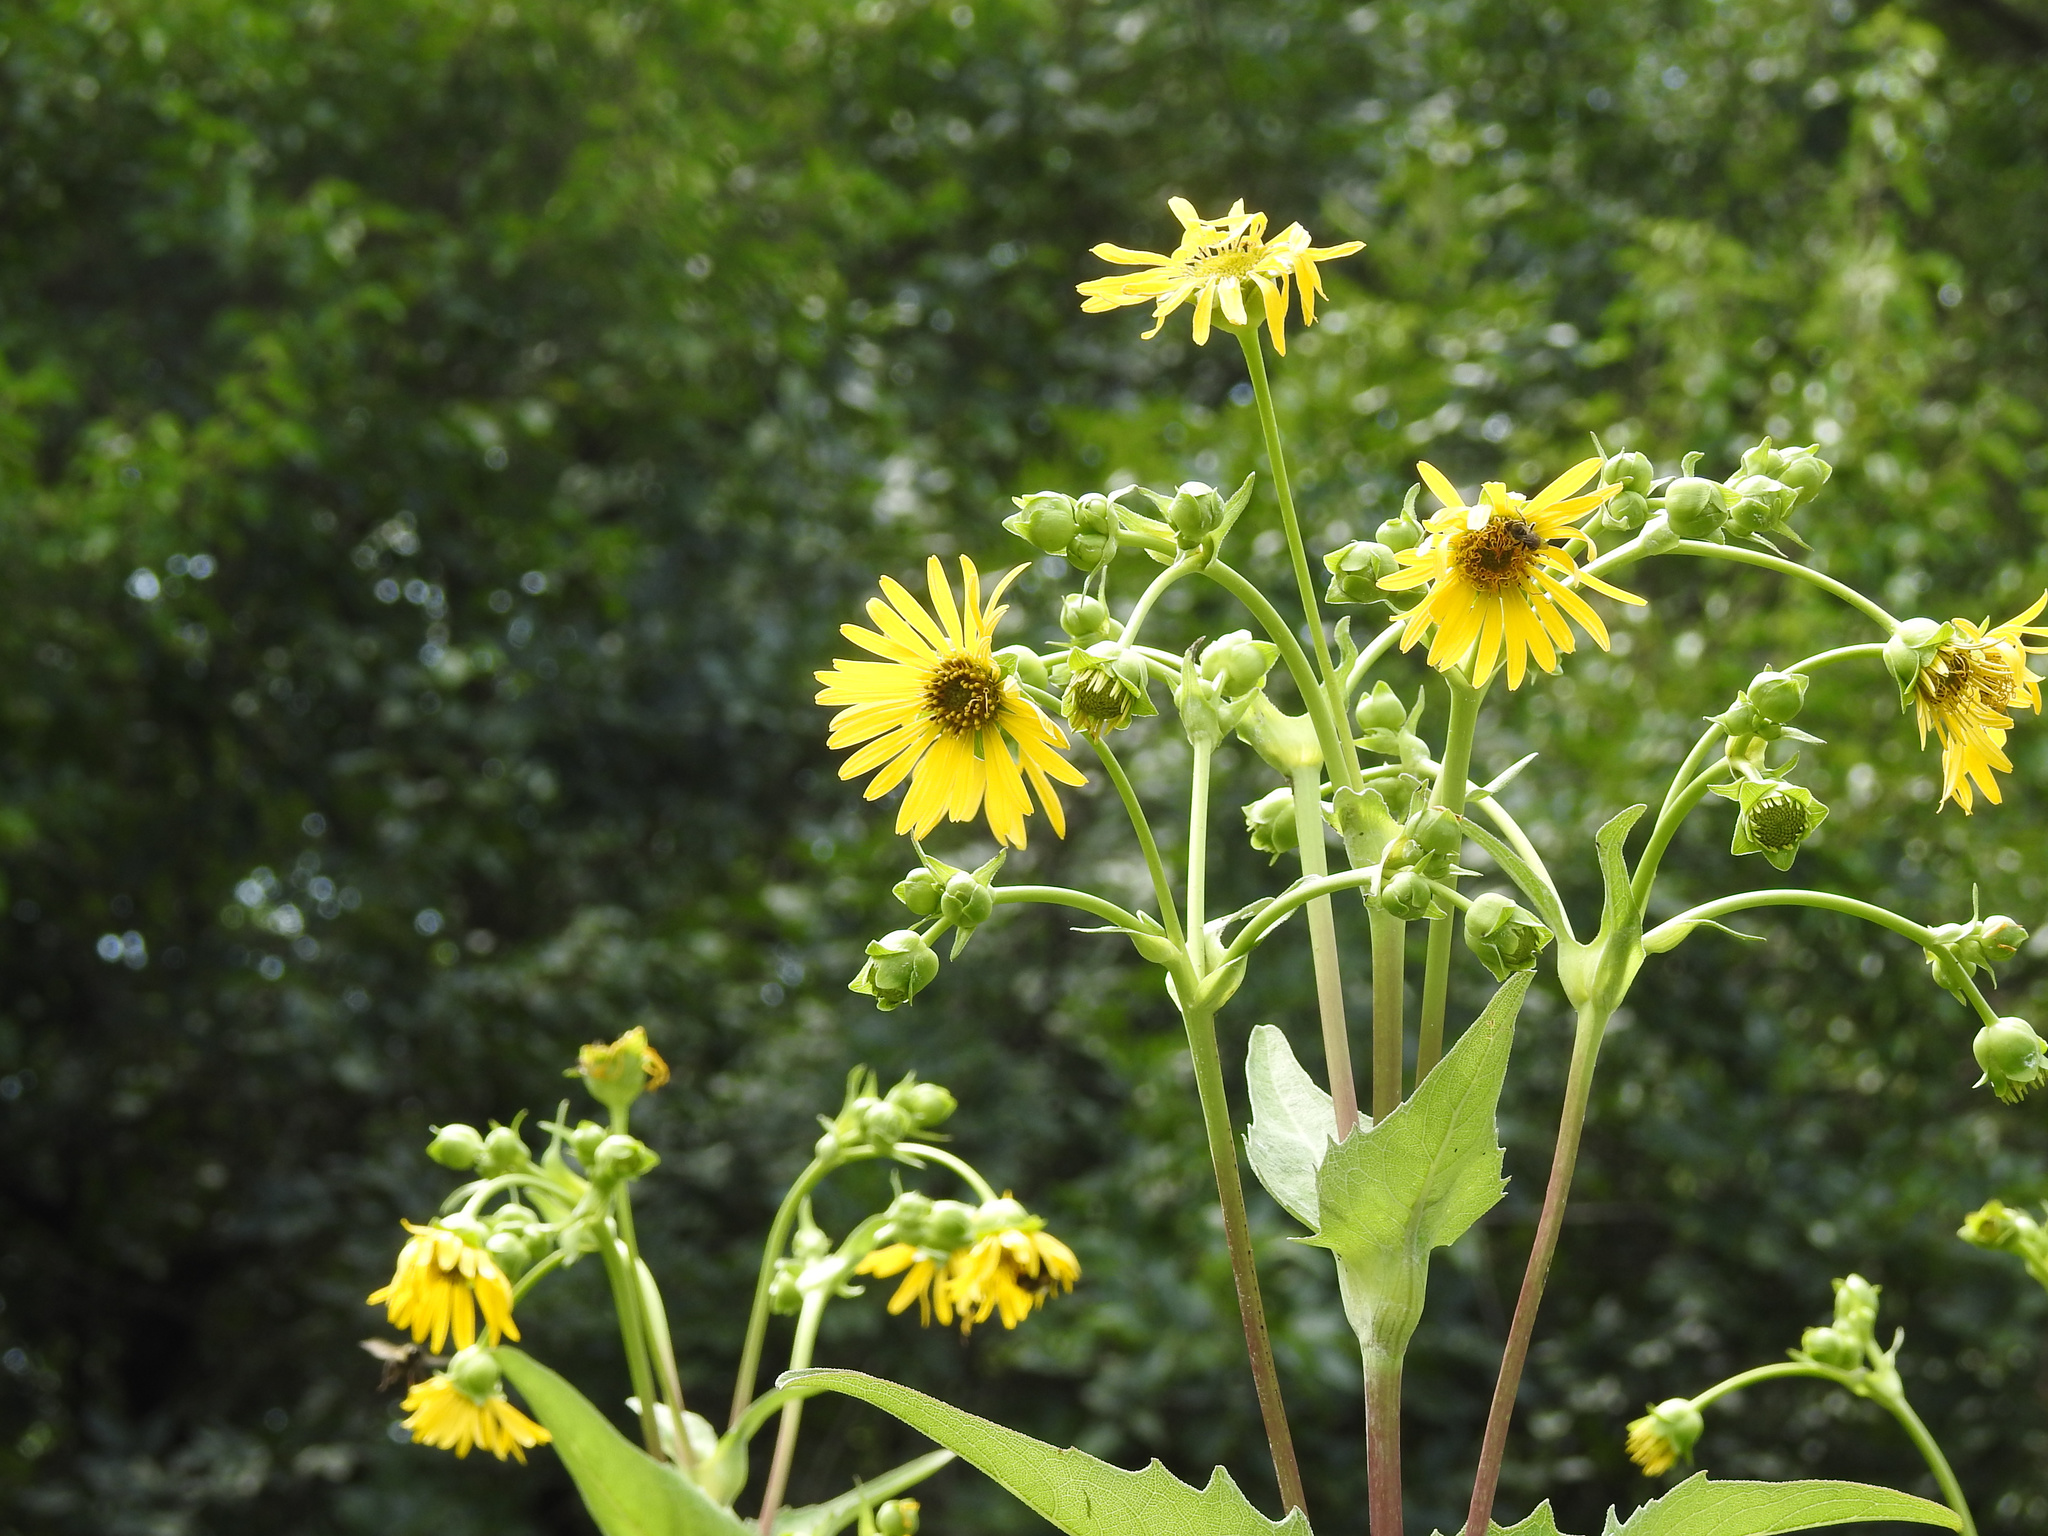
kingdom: Plantae
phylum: Tracheophyta
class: Magnoliopsida
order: Asterales
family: Asteraceae
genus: Silphium
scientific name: Silphium perfoliatum
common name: Cup-plant
